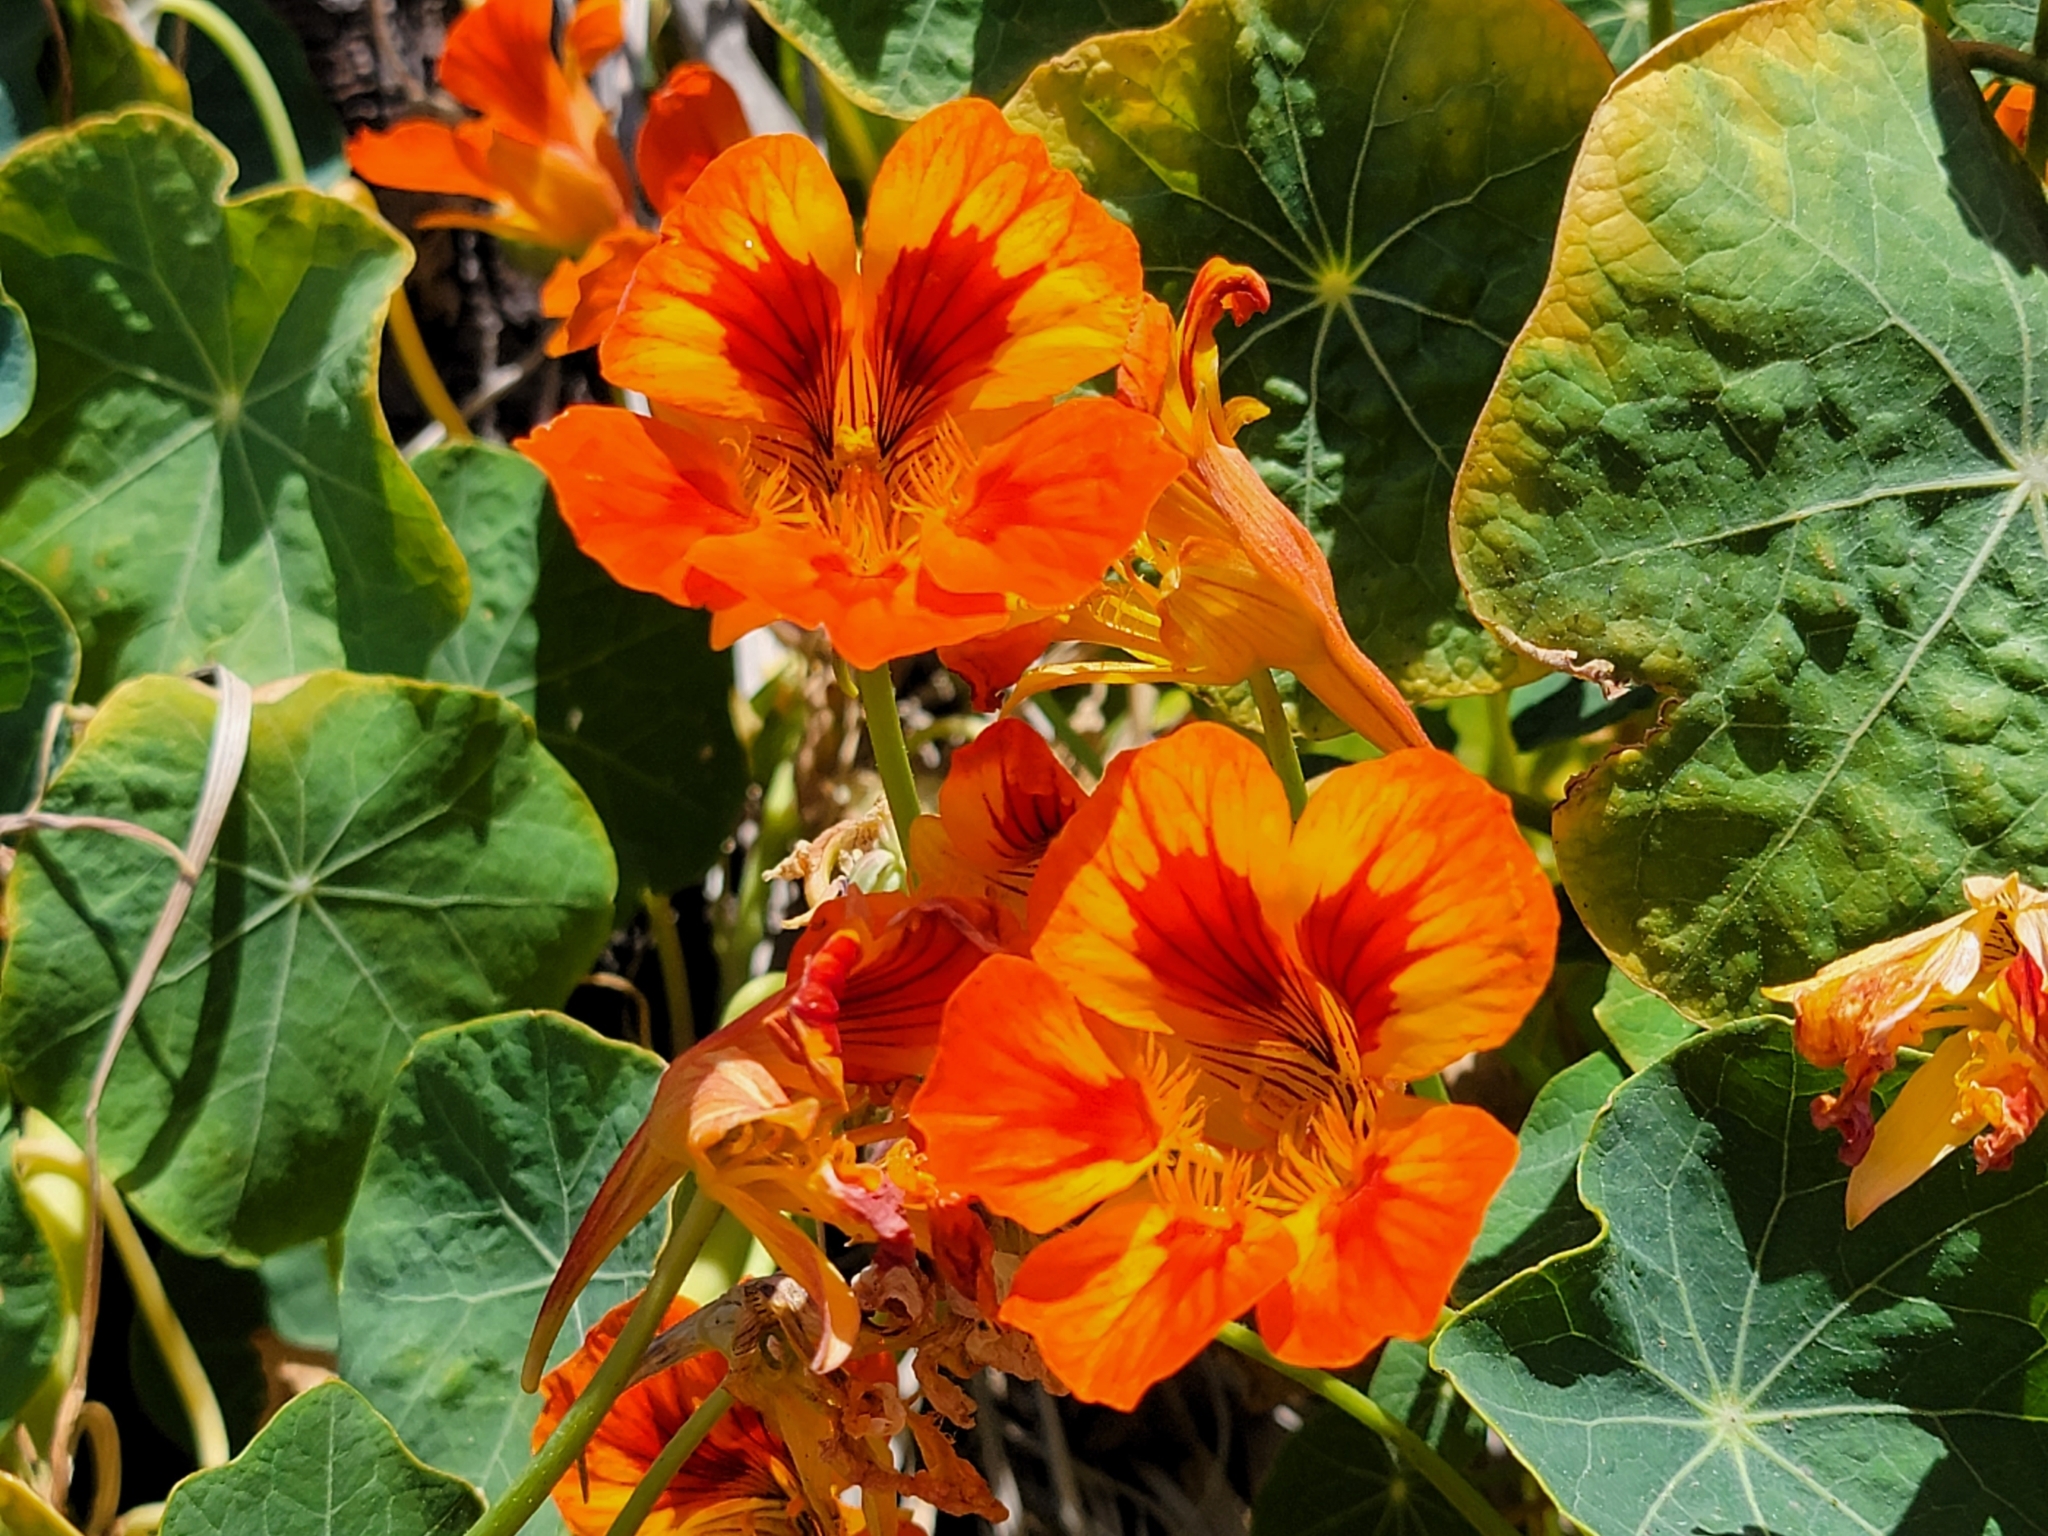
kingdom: Plantae
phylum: Tracheophyta
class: Magnoliopsida
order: Brassicales
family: Tropaeolaceae
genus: Tropaeolum
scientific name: Tropaeolum majus
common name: Nasturtium
